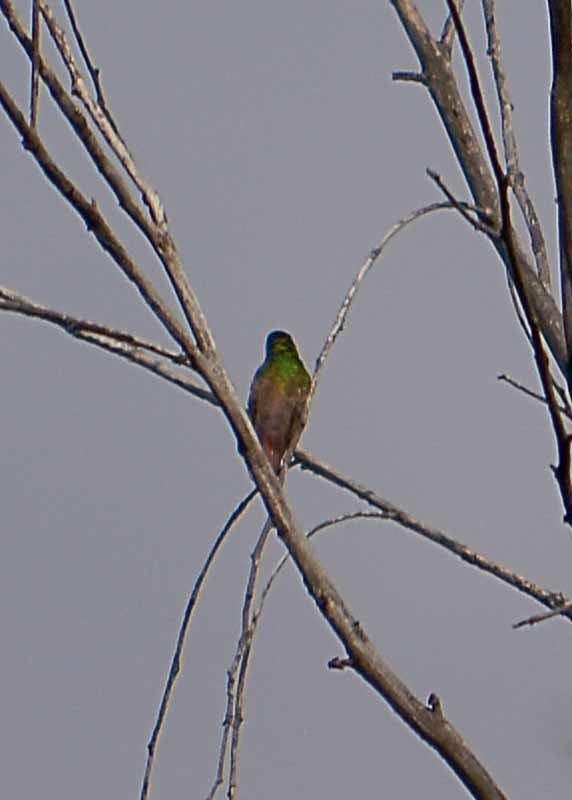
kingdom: Animalia
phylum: Chordata
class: Aves
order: Apodiformes
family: Trochilidae
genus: Saucerottia
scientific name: Saucerottia beryllina
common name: Berylline hummingbird
